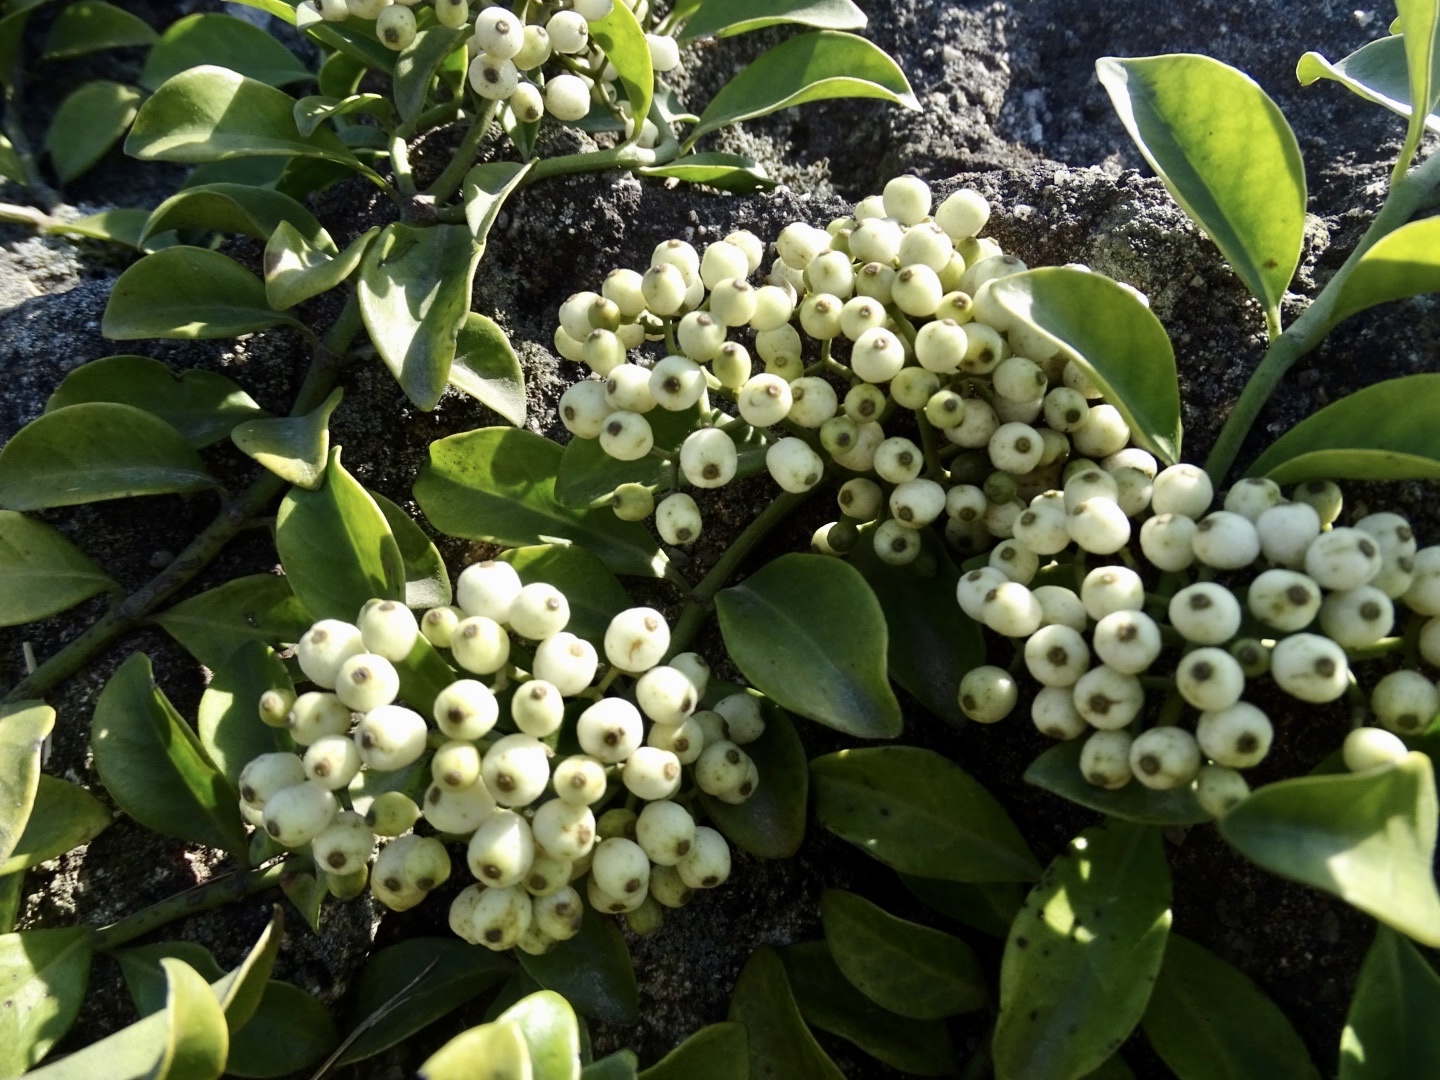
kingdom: Plantae
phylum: Tracheophyta
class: Magnoliopsida
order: Gentianales
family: Rubiaceae
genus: Psychotria
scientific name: Psychotria serpens
